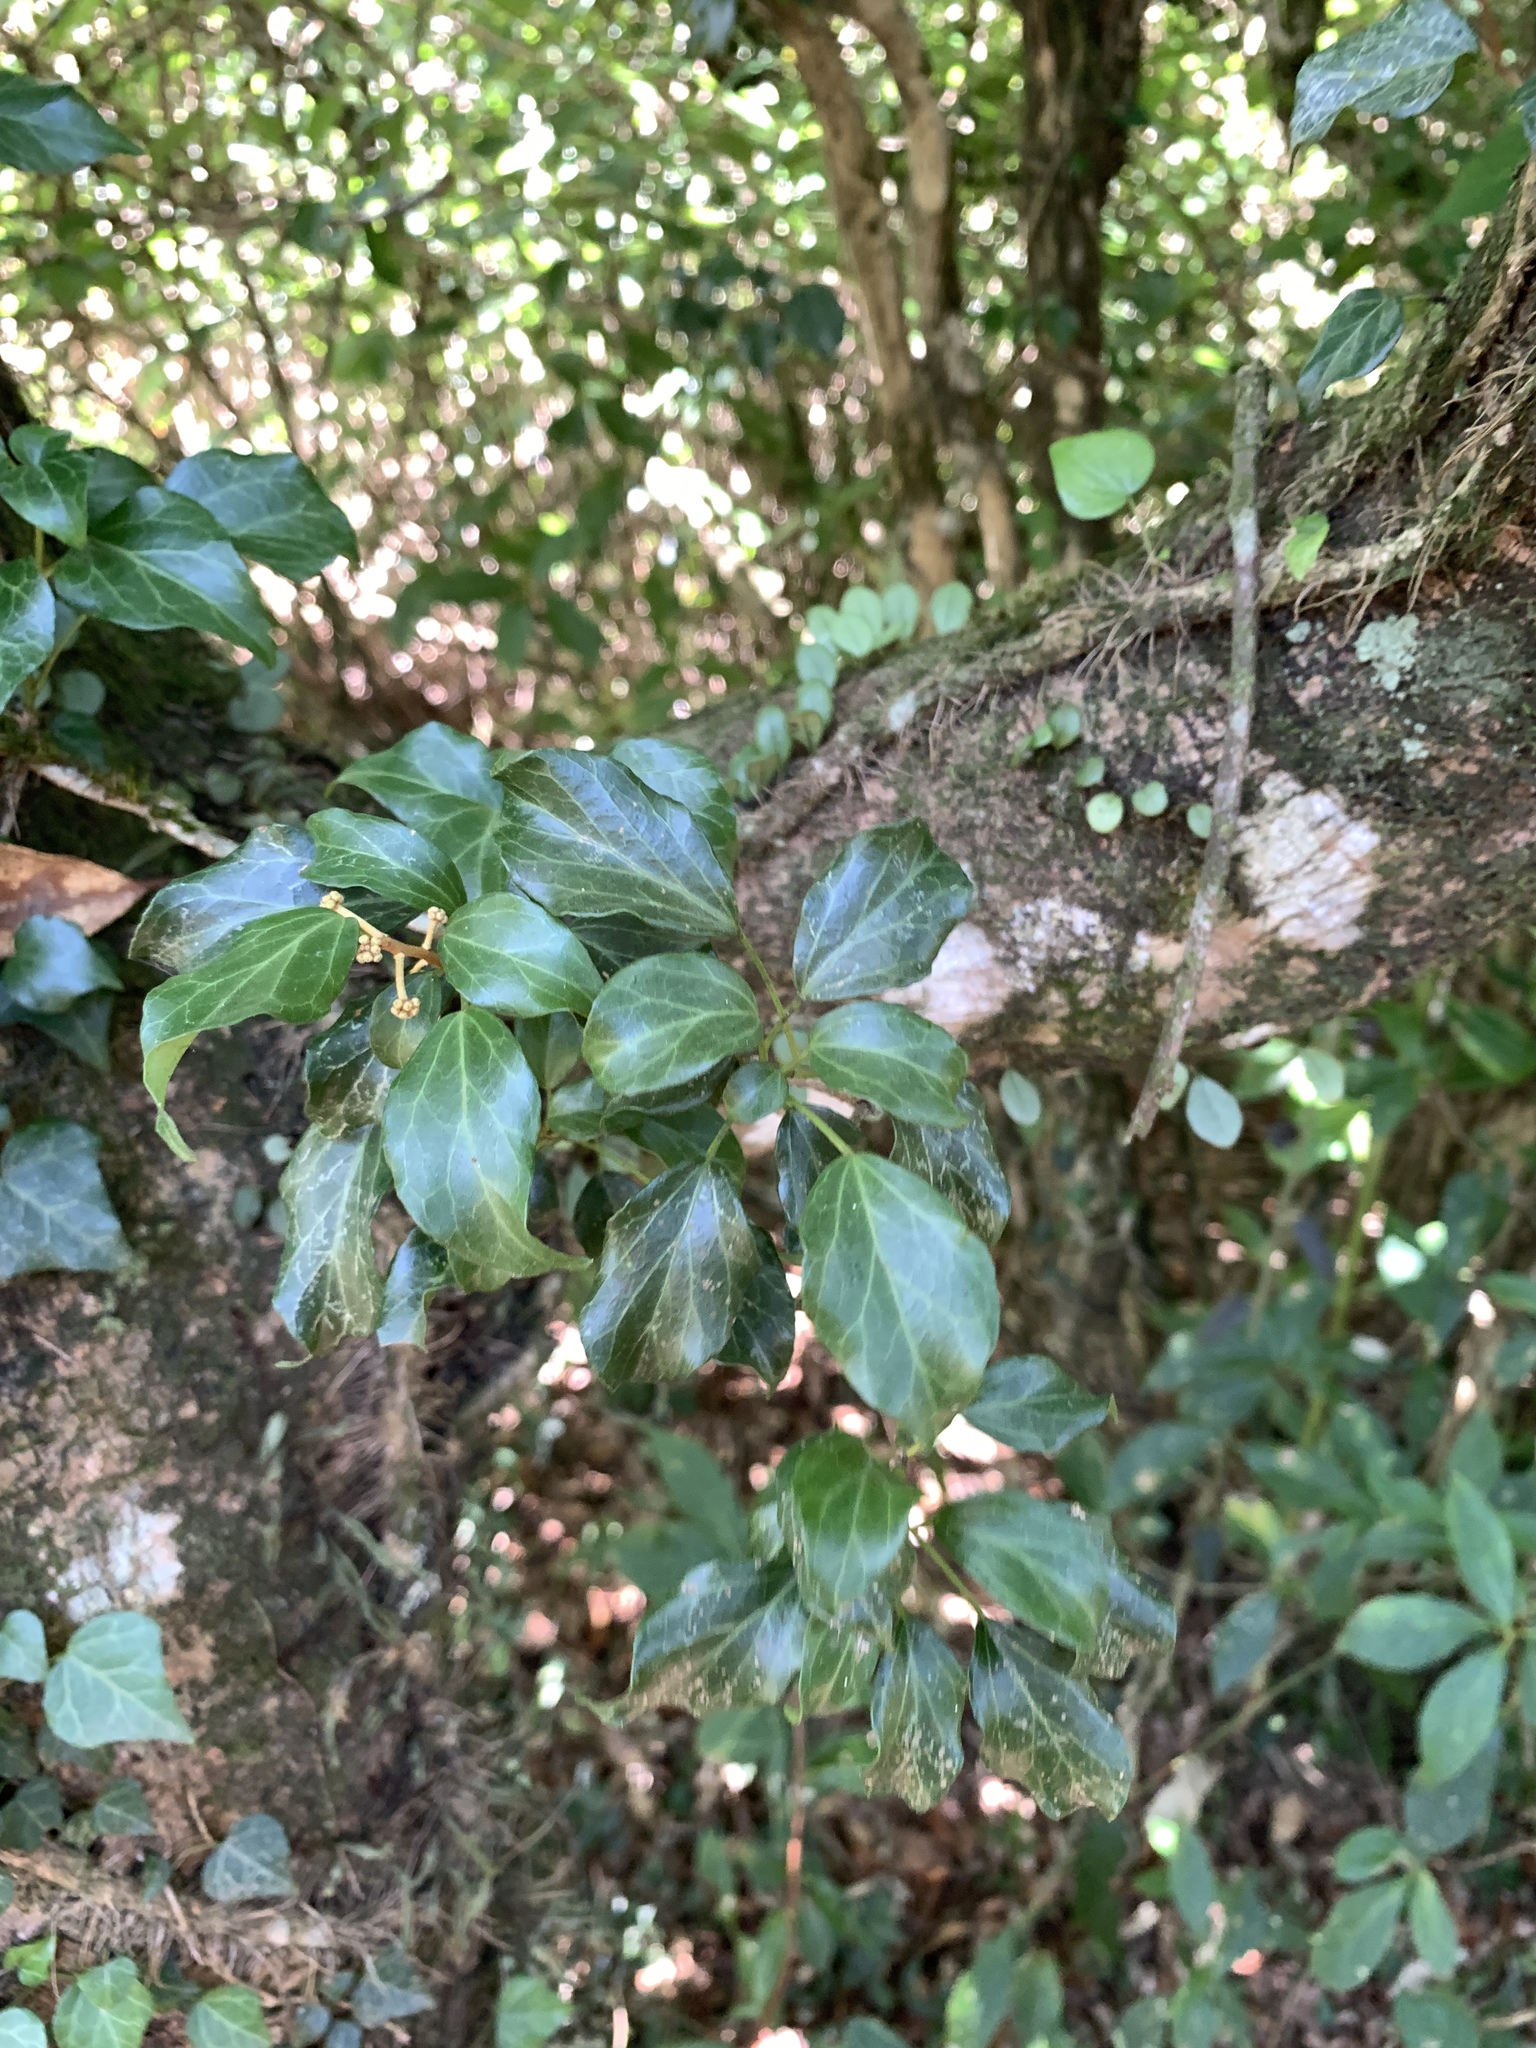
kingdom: Plantae
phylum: Tracheophyta
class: Magnoliopsida
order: Apiales
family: Araliaceae
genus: Hedera
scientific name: Hedera rhombea
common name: Japanese ivy
